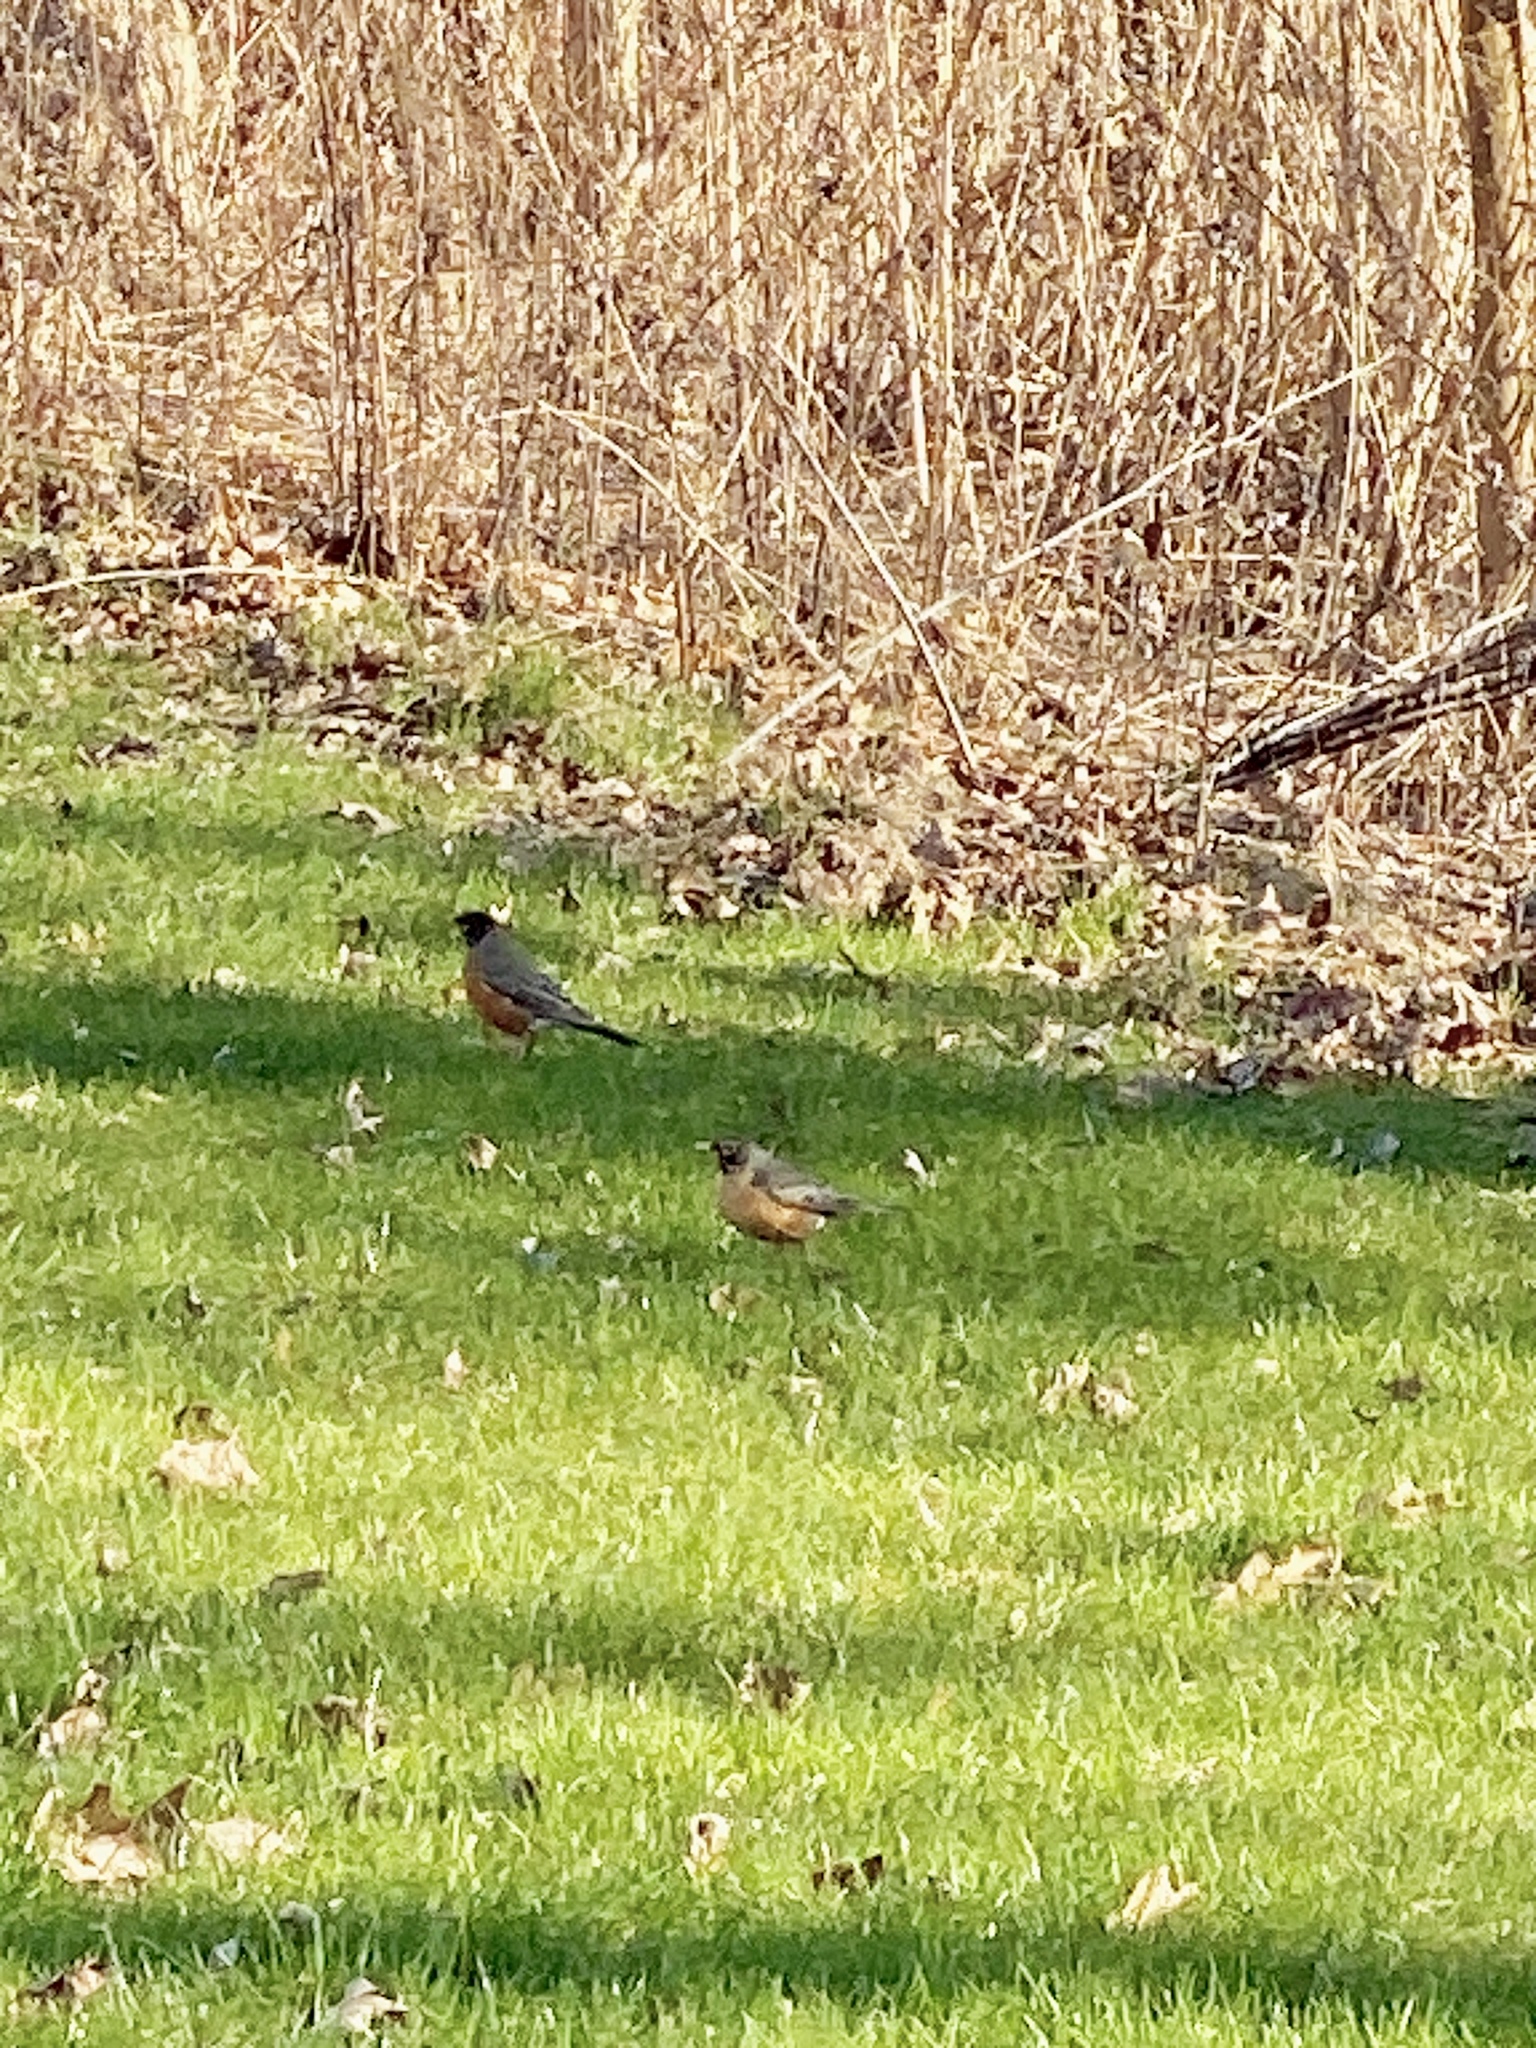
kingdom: Animalia
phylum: Chordata
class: Aves
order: Passeriformes
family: Turdidae
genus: Turdus
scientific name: Turdus migratorius
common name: American robin
